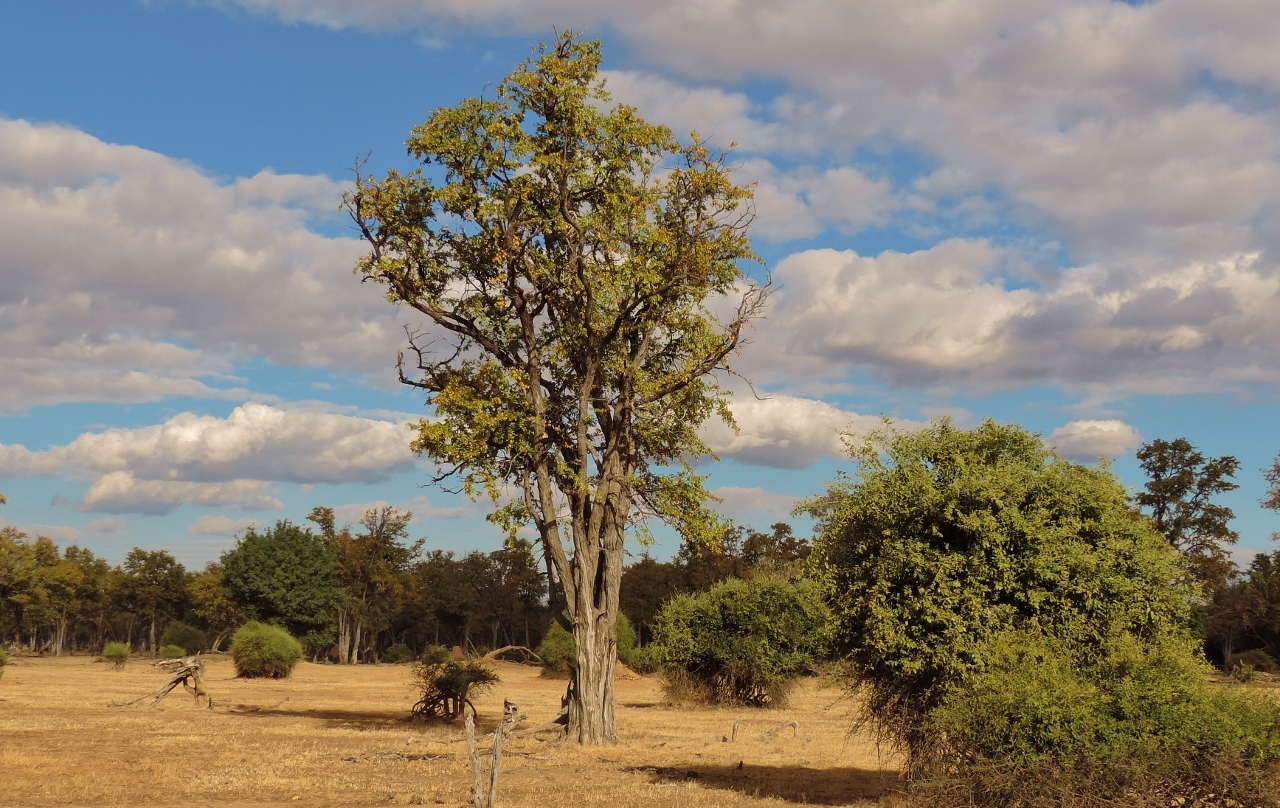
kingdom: Plantae
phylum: Tracheophyta
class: Magnoliopsida
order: Fabales
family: Fabaceae
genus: Colophospermum
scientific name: Colophospermum mopane
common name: Mopane
